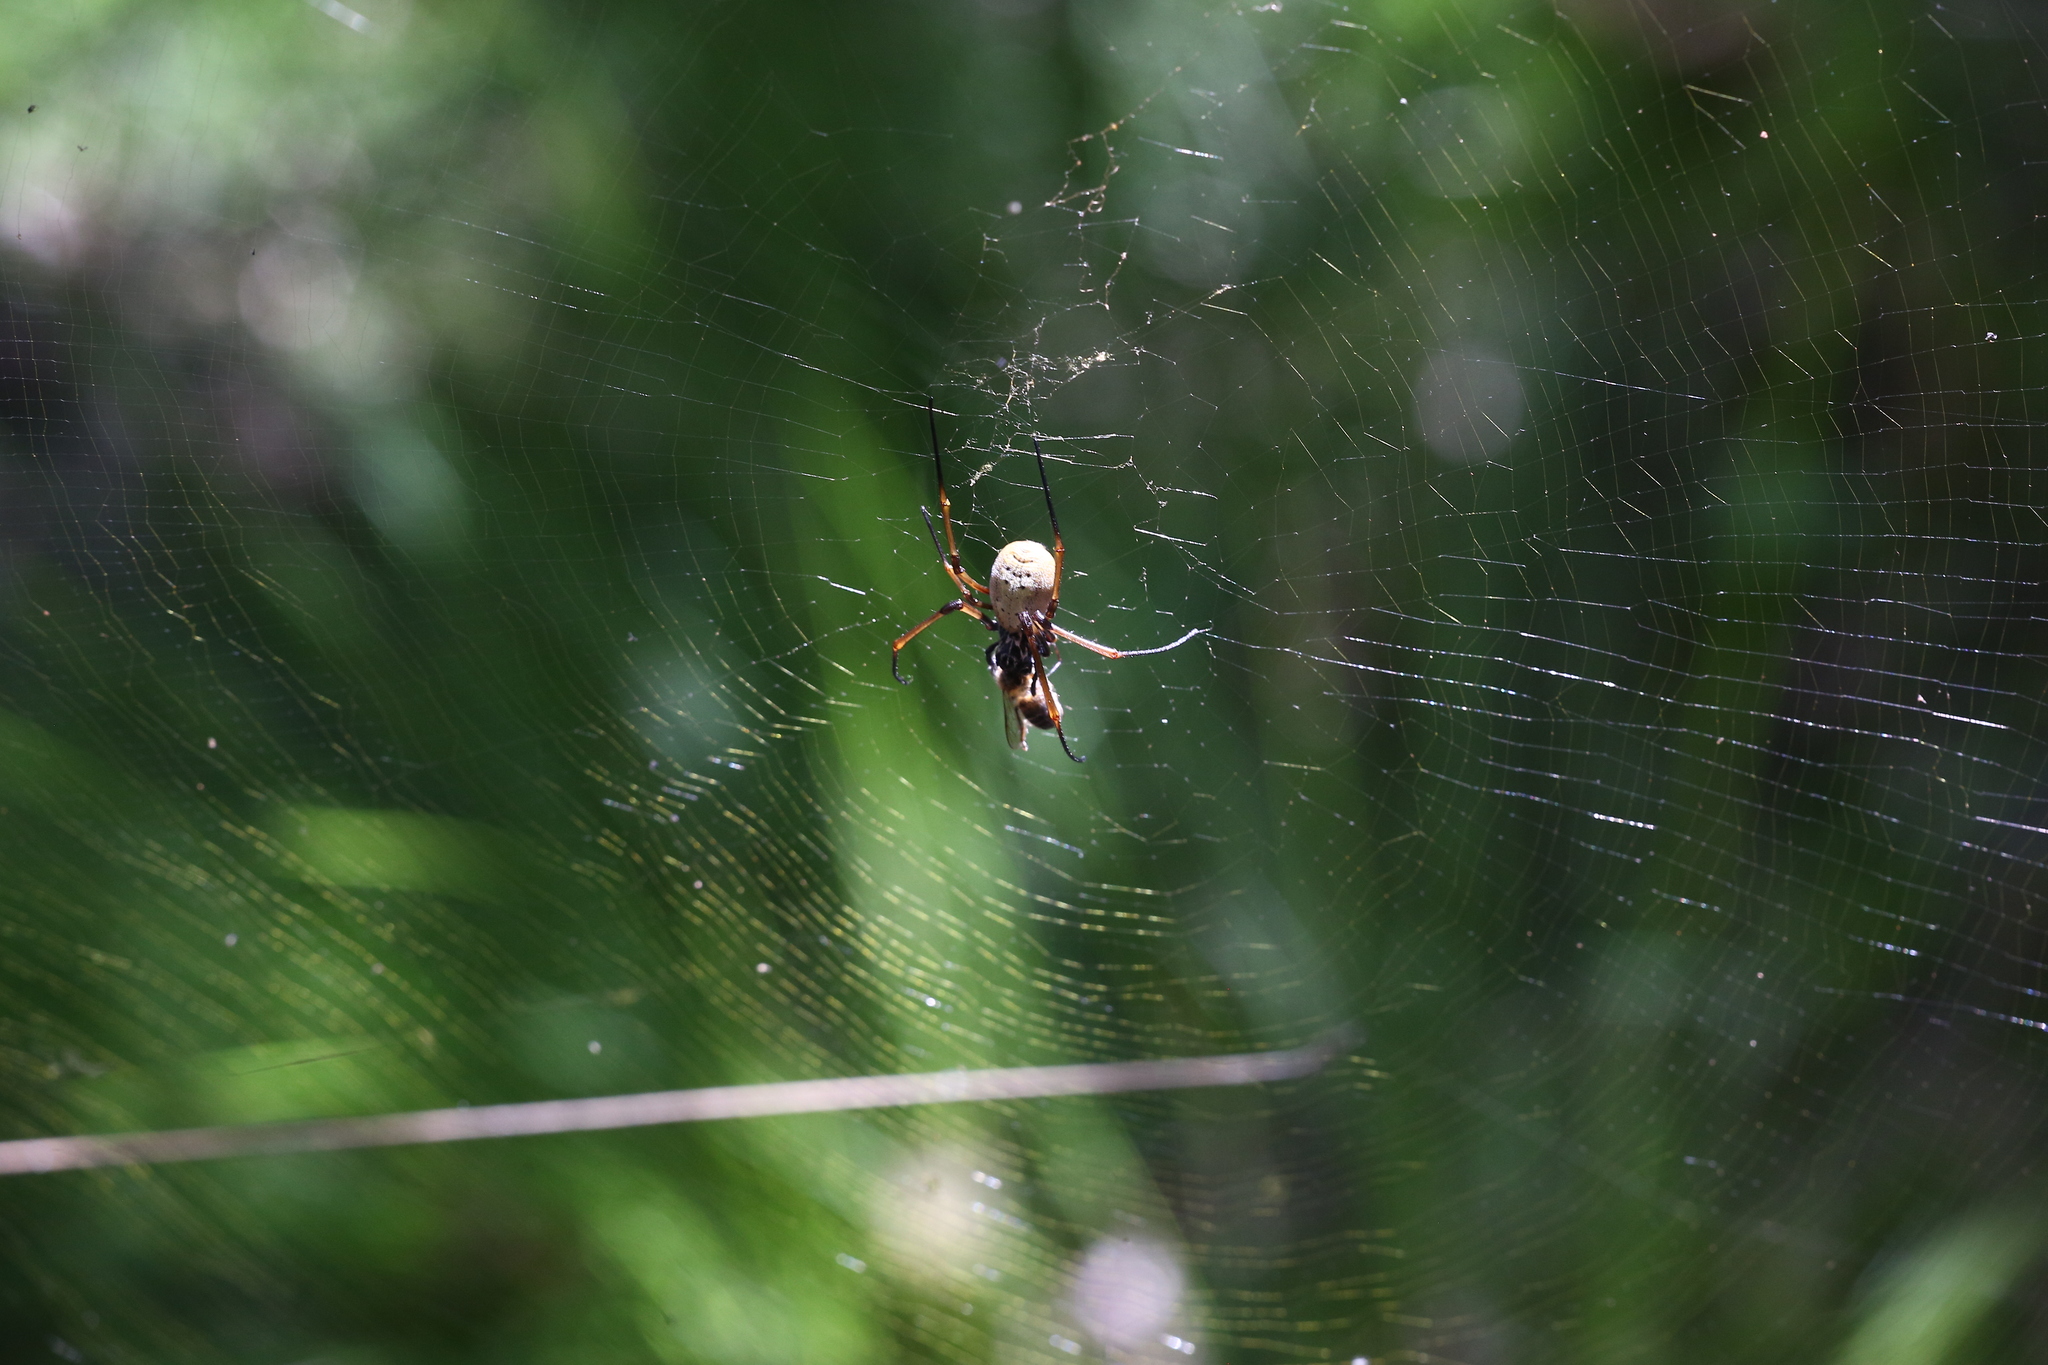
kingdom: Animalia
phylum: Arthropoda
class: Arachnida
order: Araneae
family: Araneidae
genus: Trichonephila
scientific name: Trichonephila plumipes
